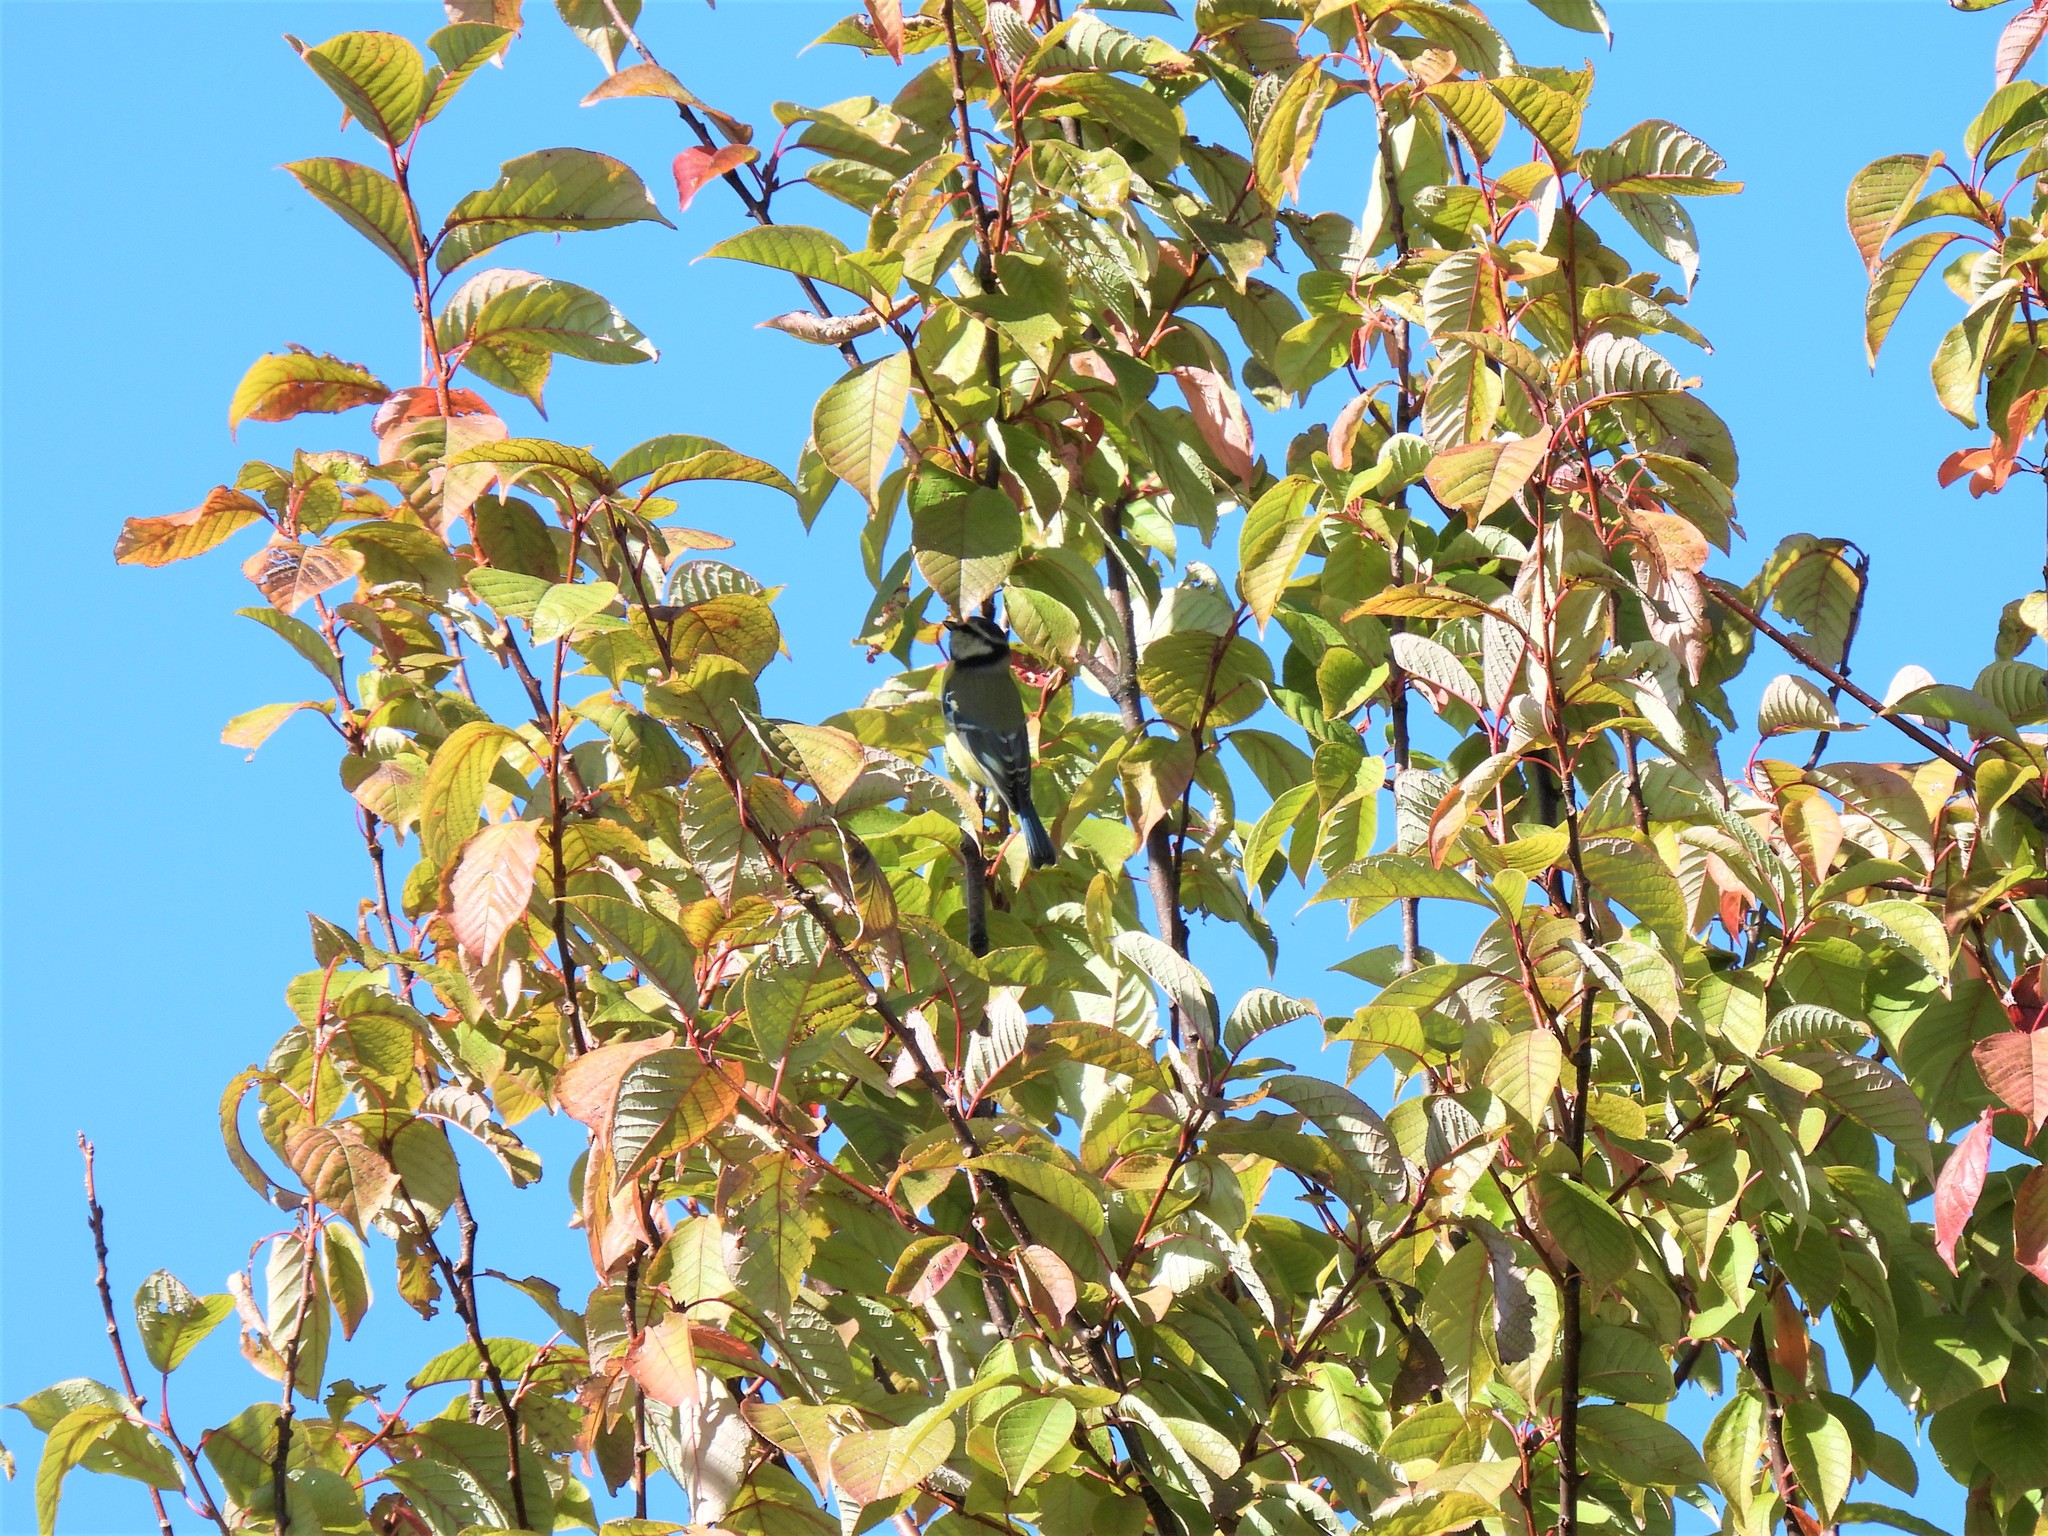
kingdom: Animalia
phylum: Chordata
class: Aves
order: Passeriformes
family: Paridae
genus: Cyanistes
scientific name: Cyanistes caeruleus
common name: Eurasian blue tit
